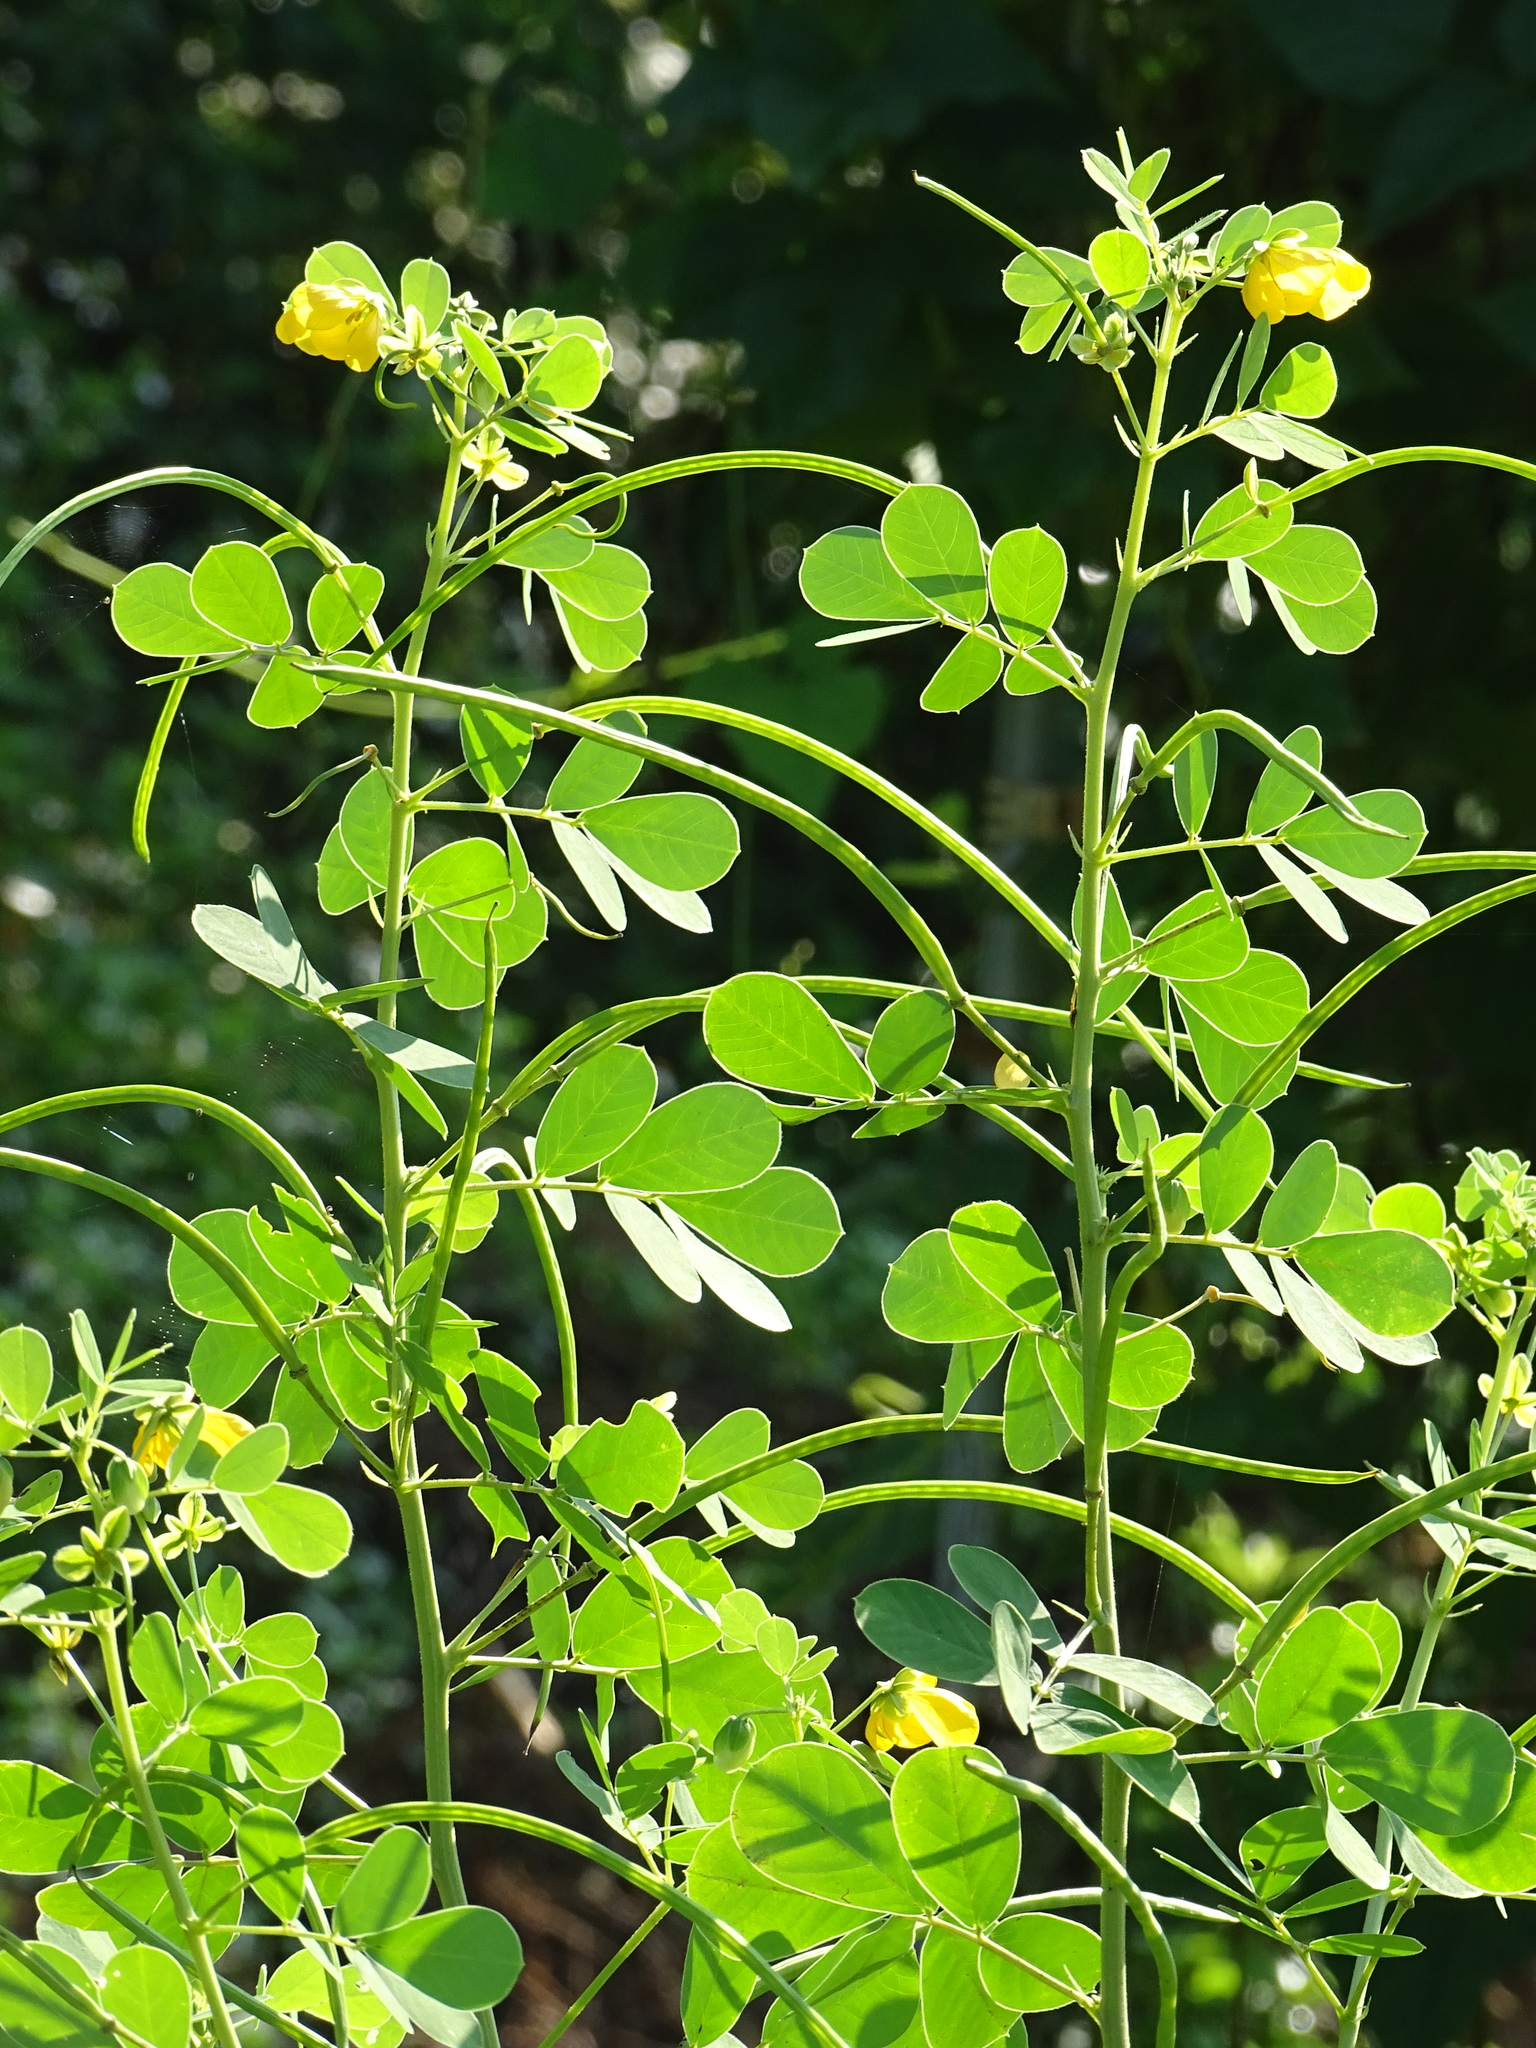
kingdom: Plantae
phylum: Tracheophyta
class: Magnoliopsida
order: Fabales
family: Fabaceae
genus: Senna
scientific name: Senna tora
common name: Sickle senna
